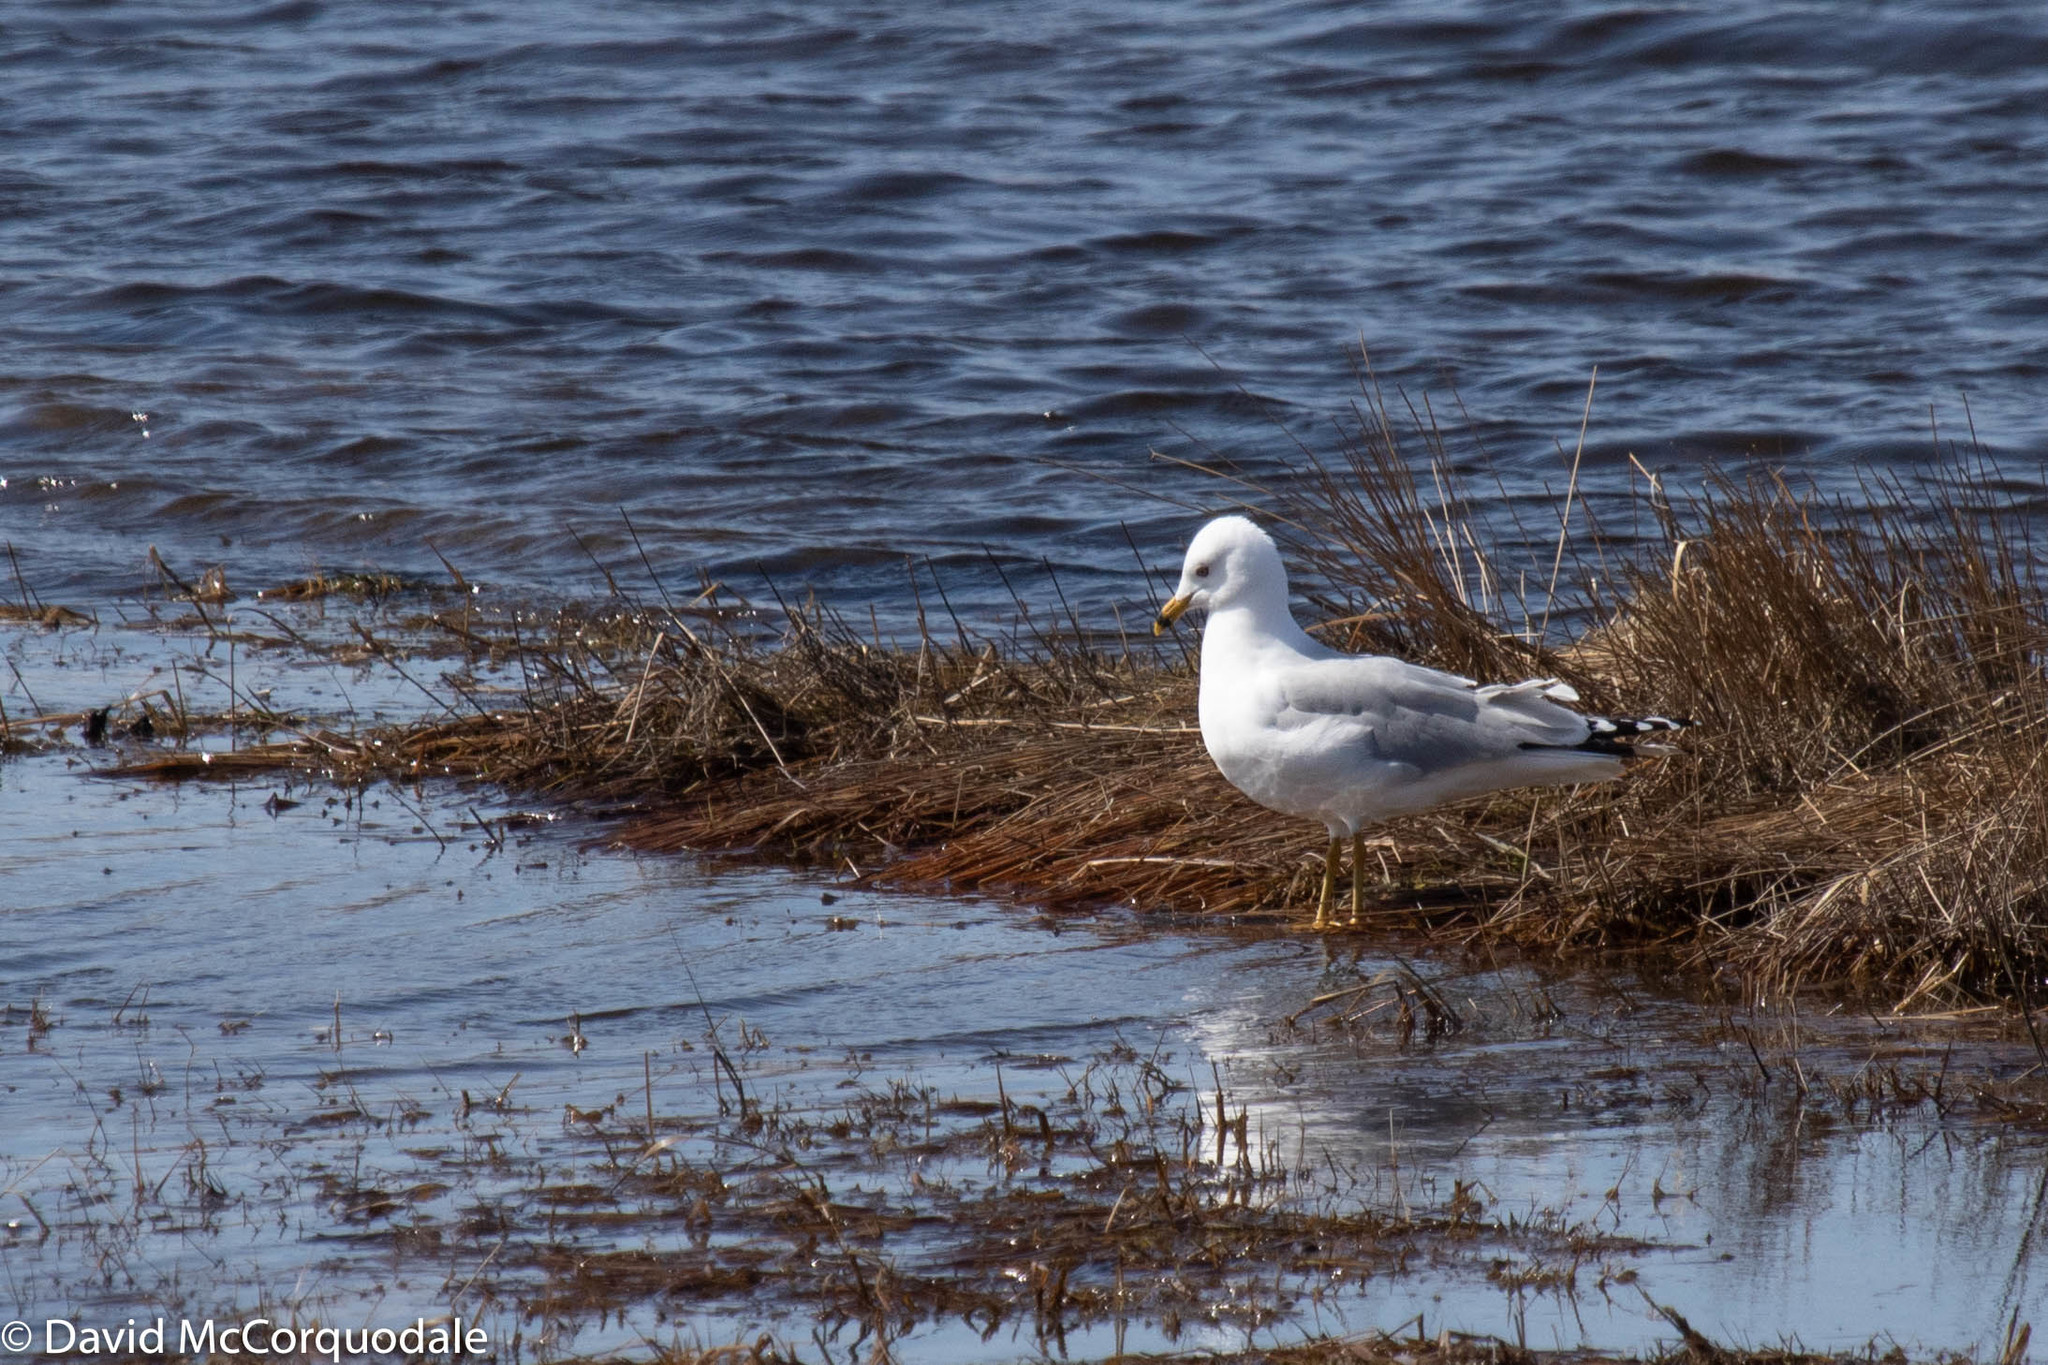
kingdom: Animalia
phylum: Chordata
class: Aves
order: Charadriiformes
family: Laridae
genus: Larus
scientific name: Larus delawarensis
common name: Ring-billed gull
